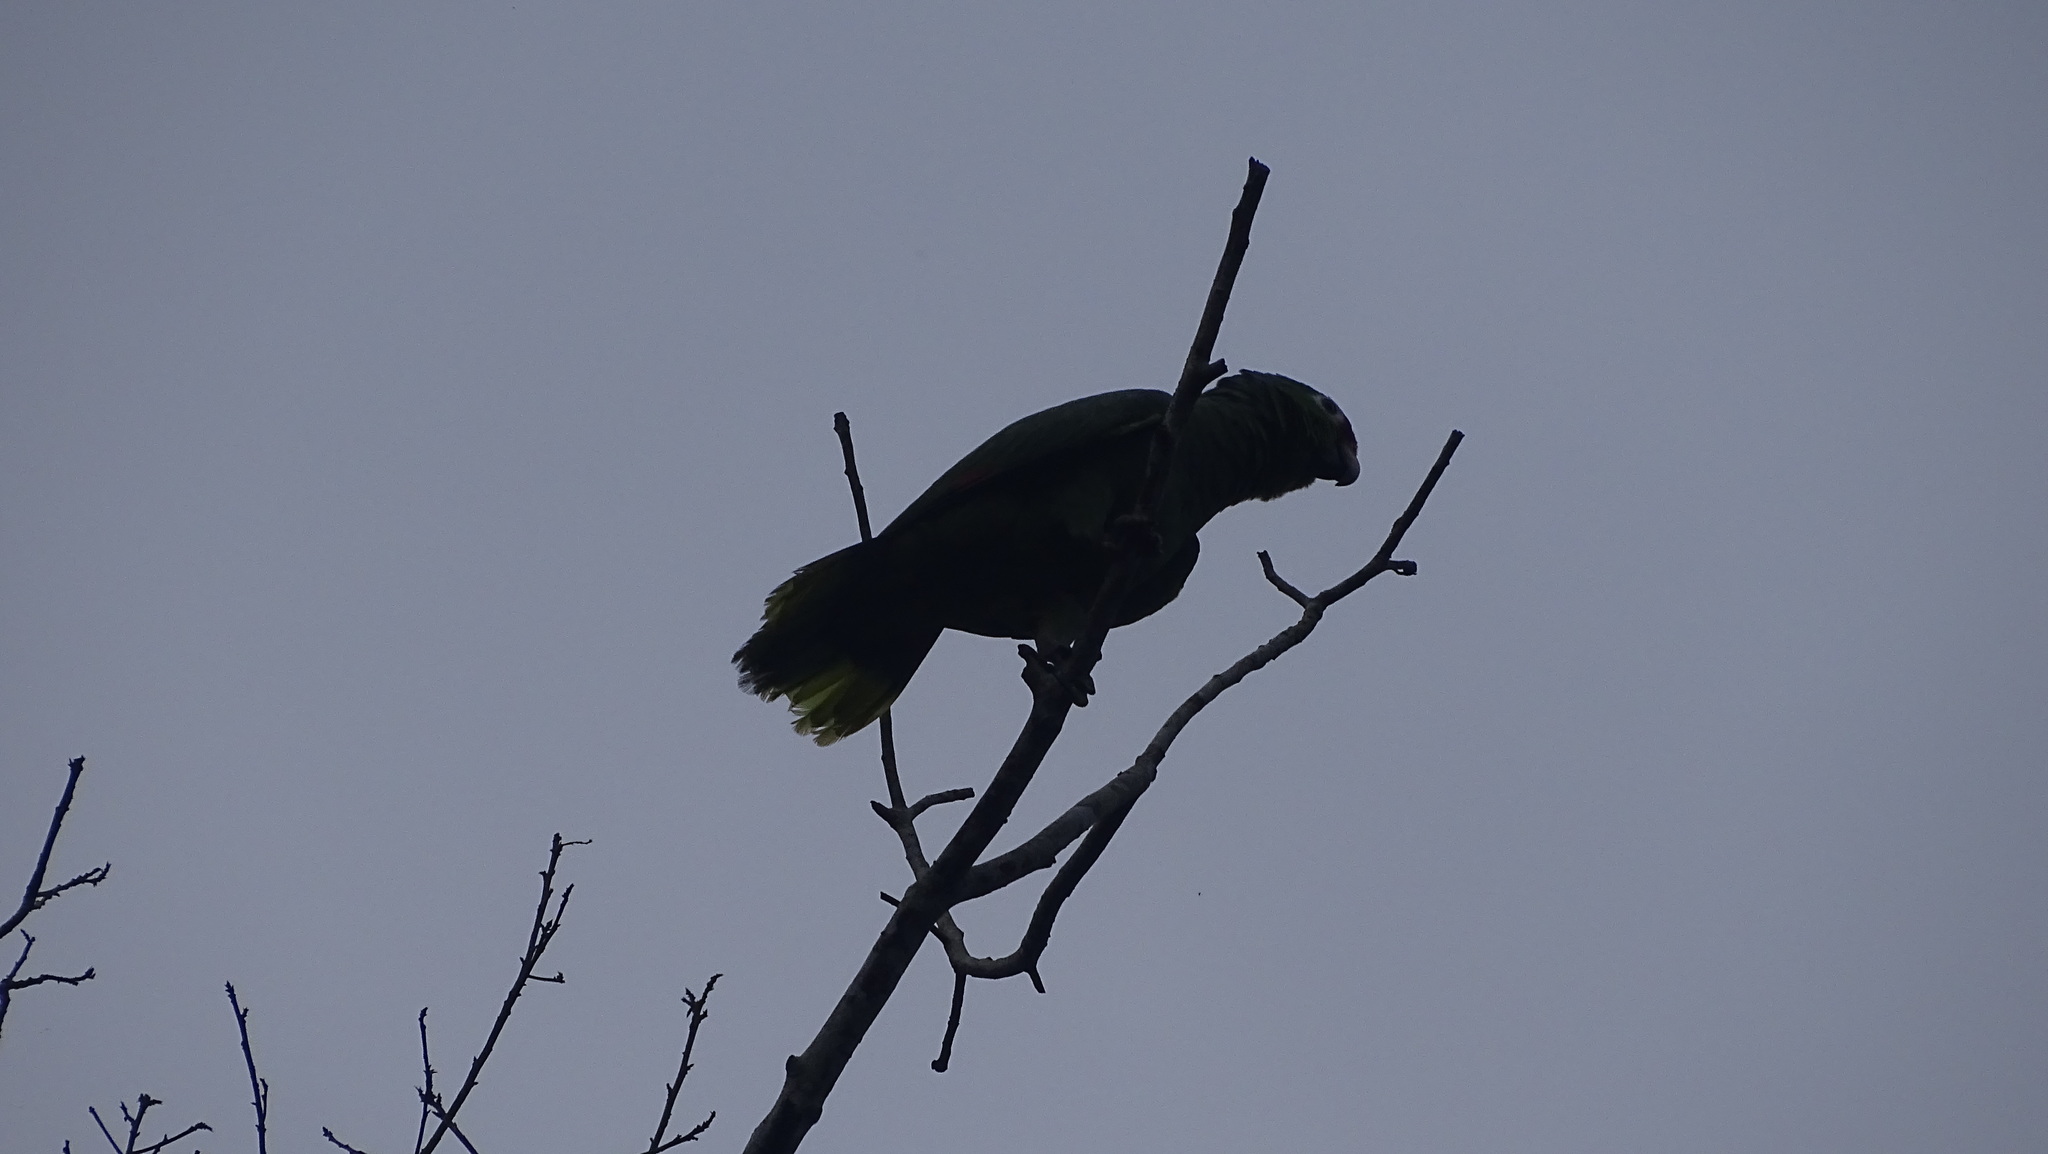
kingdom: Animalia
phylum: Chordata
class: Aves
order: Psittaciformes
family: Psittacidae
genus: Amazona
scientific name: Amazona autumnalis
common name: Red-lored amazon
